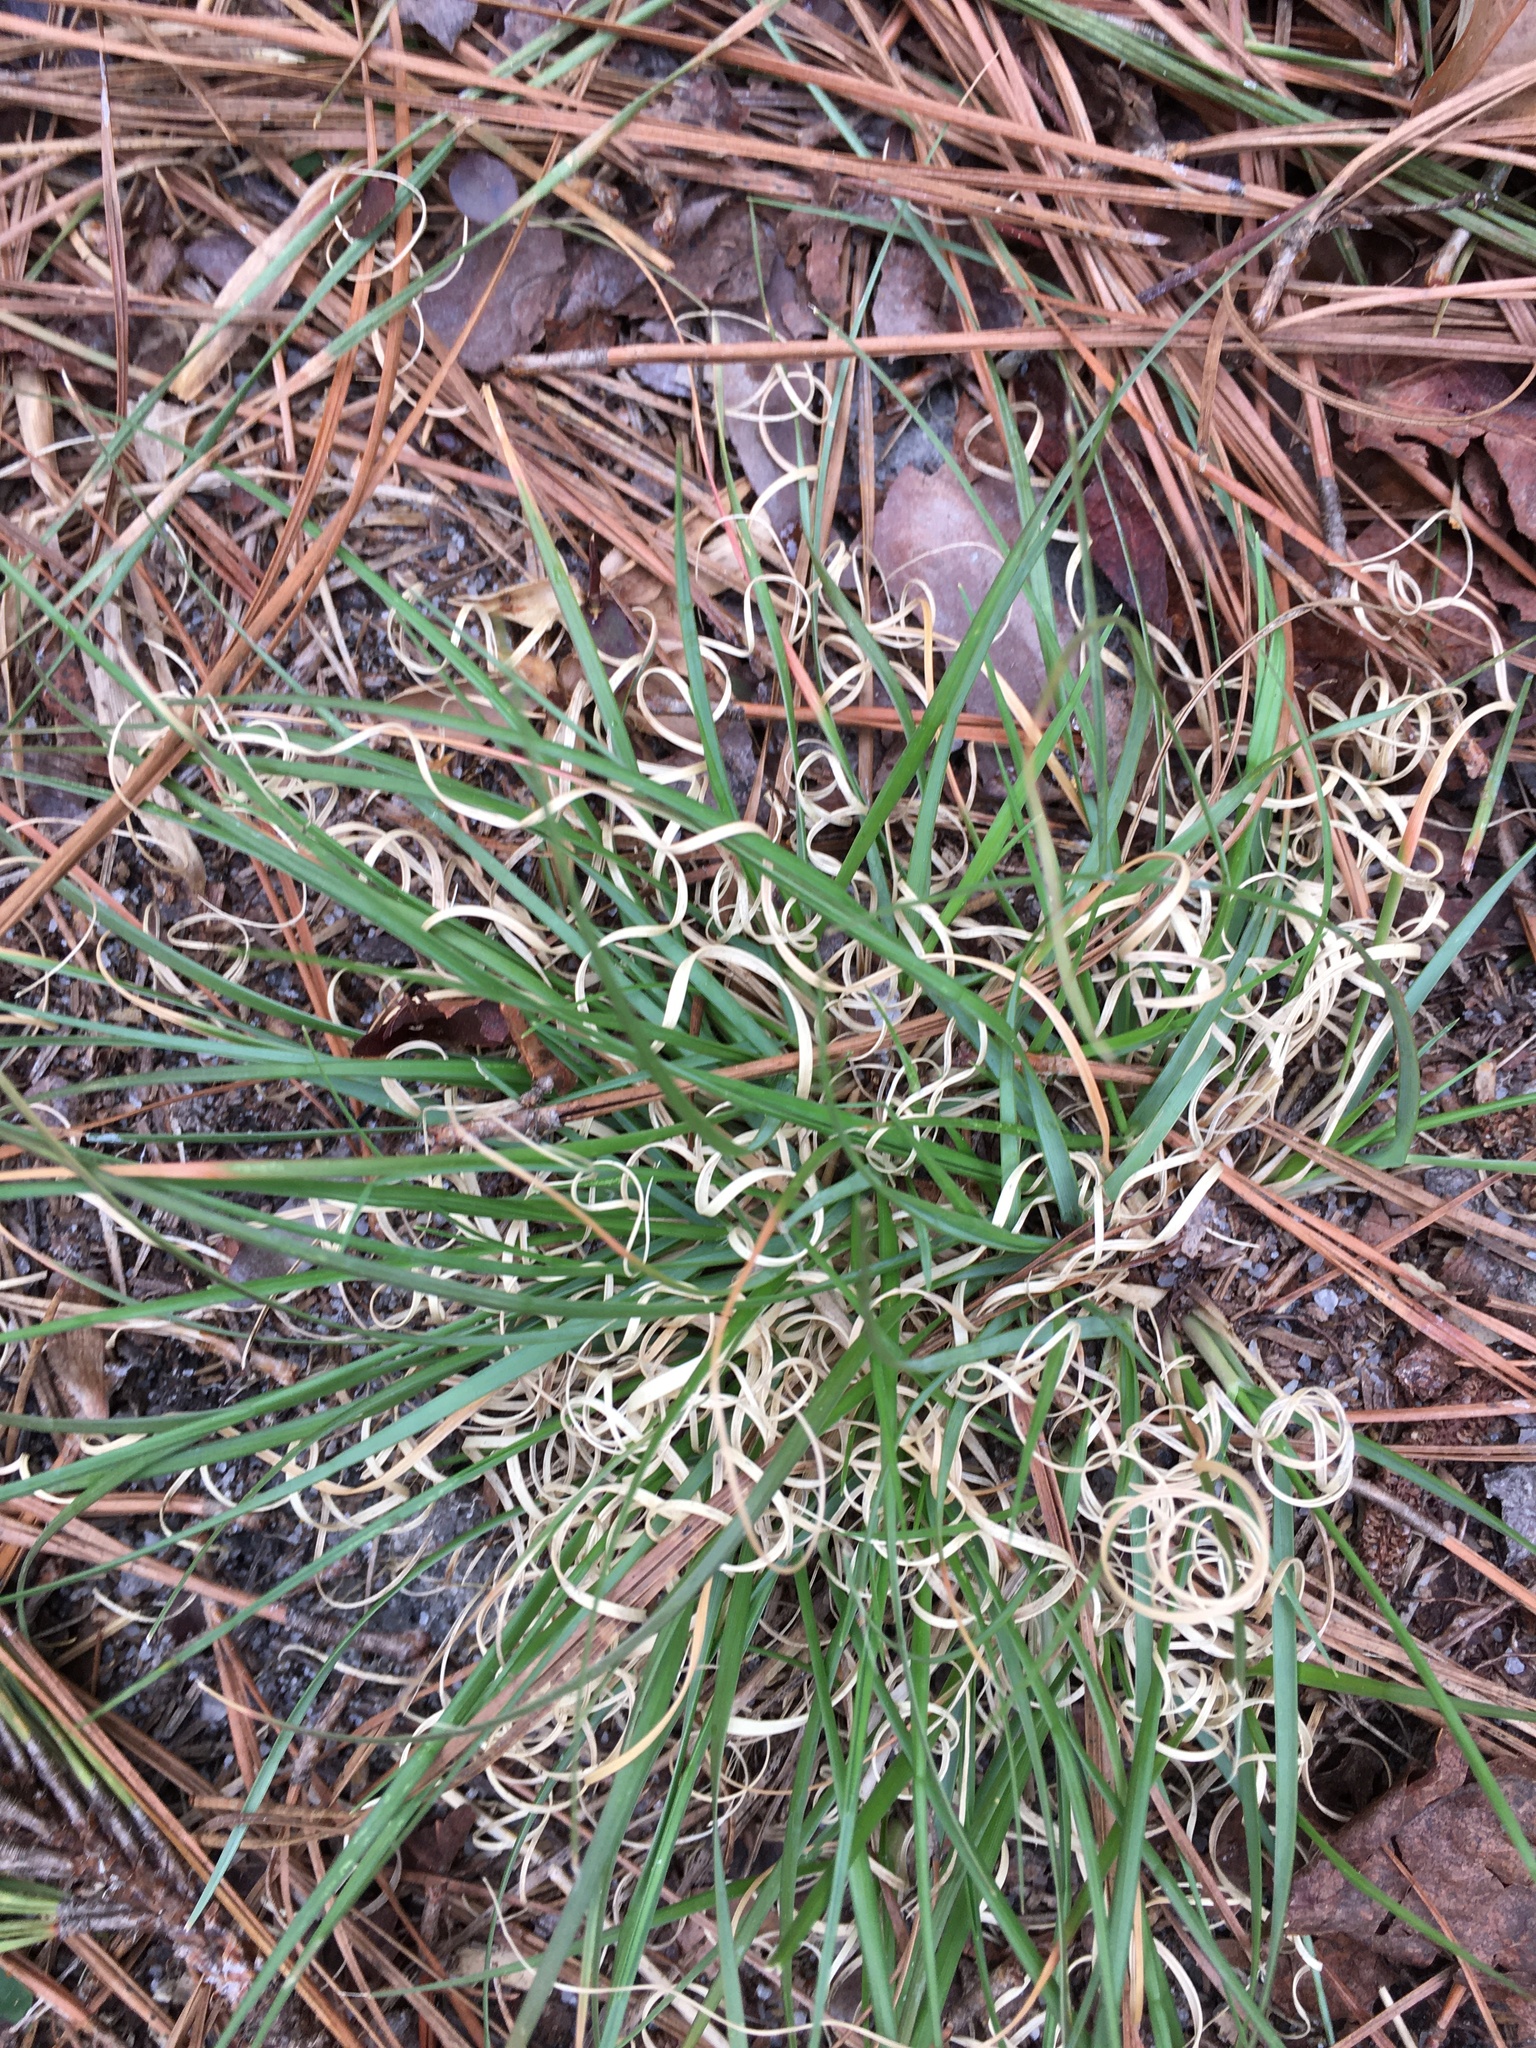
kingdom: Plantae
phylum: Tracheophyta
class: Liliopsida
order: Poales
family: Poaceae
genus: Danthonia
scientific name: Danthonia spicata
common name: Common wild oatgrass
